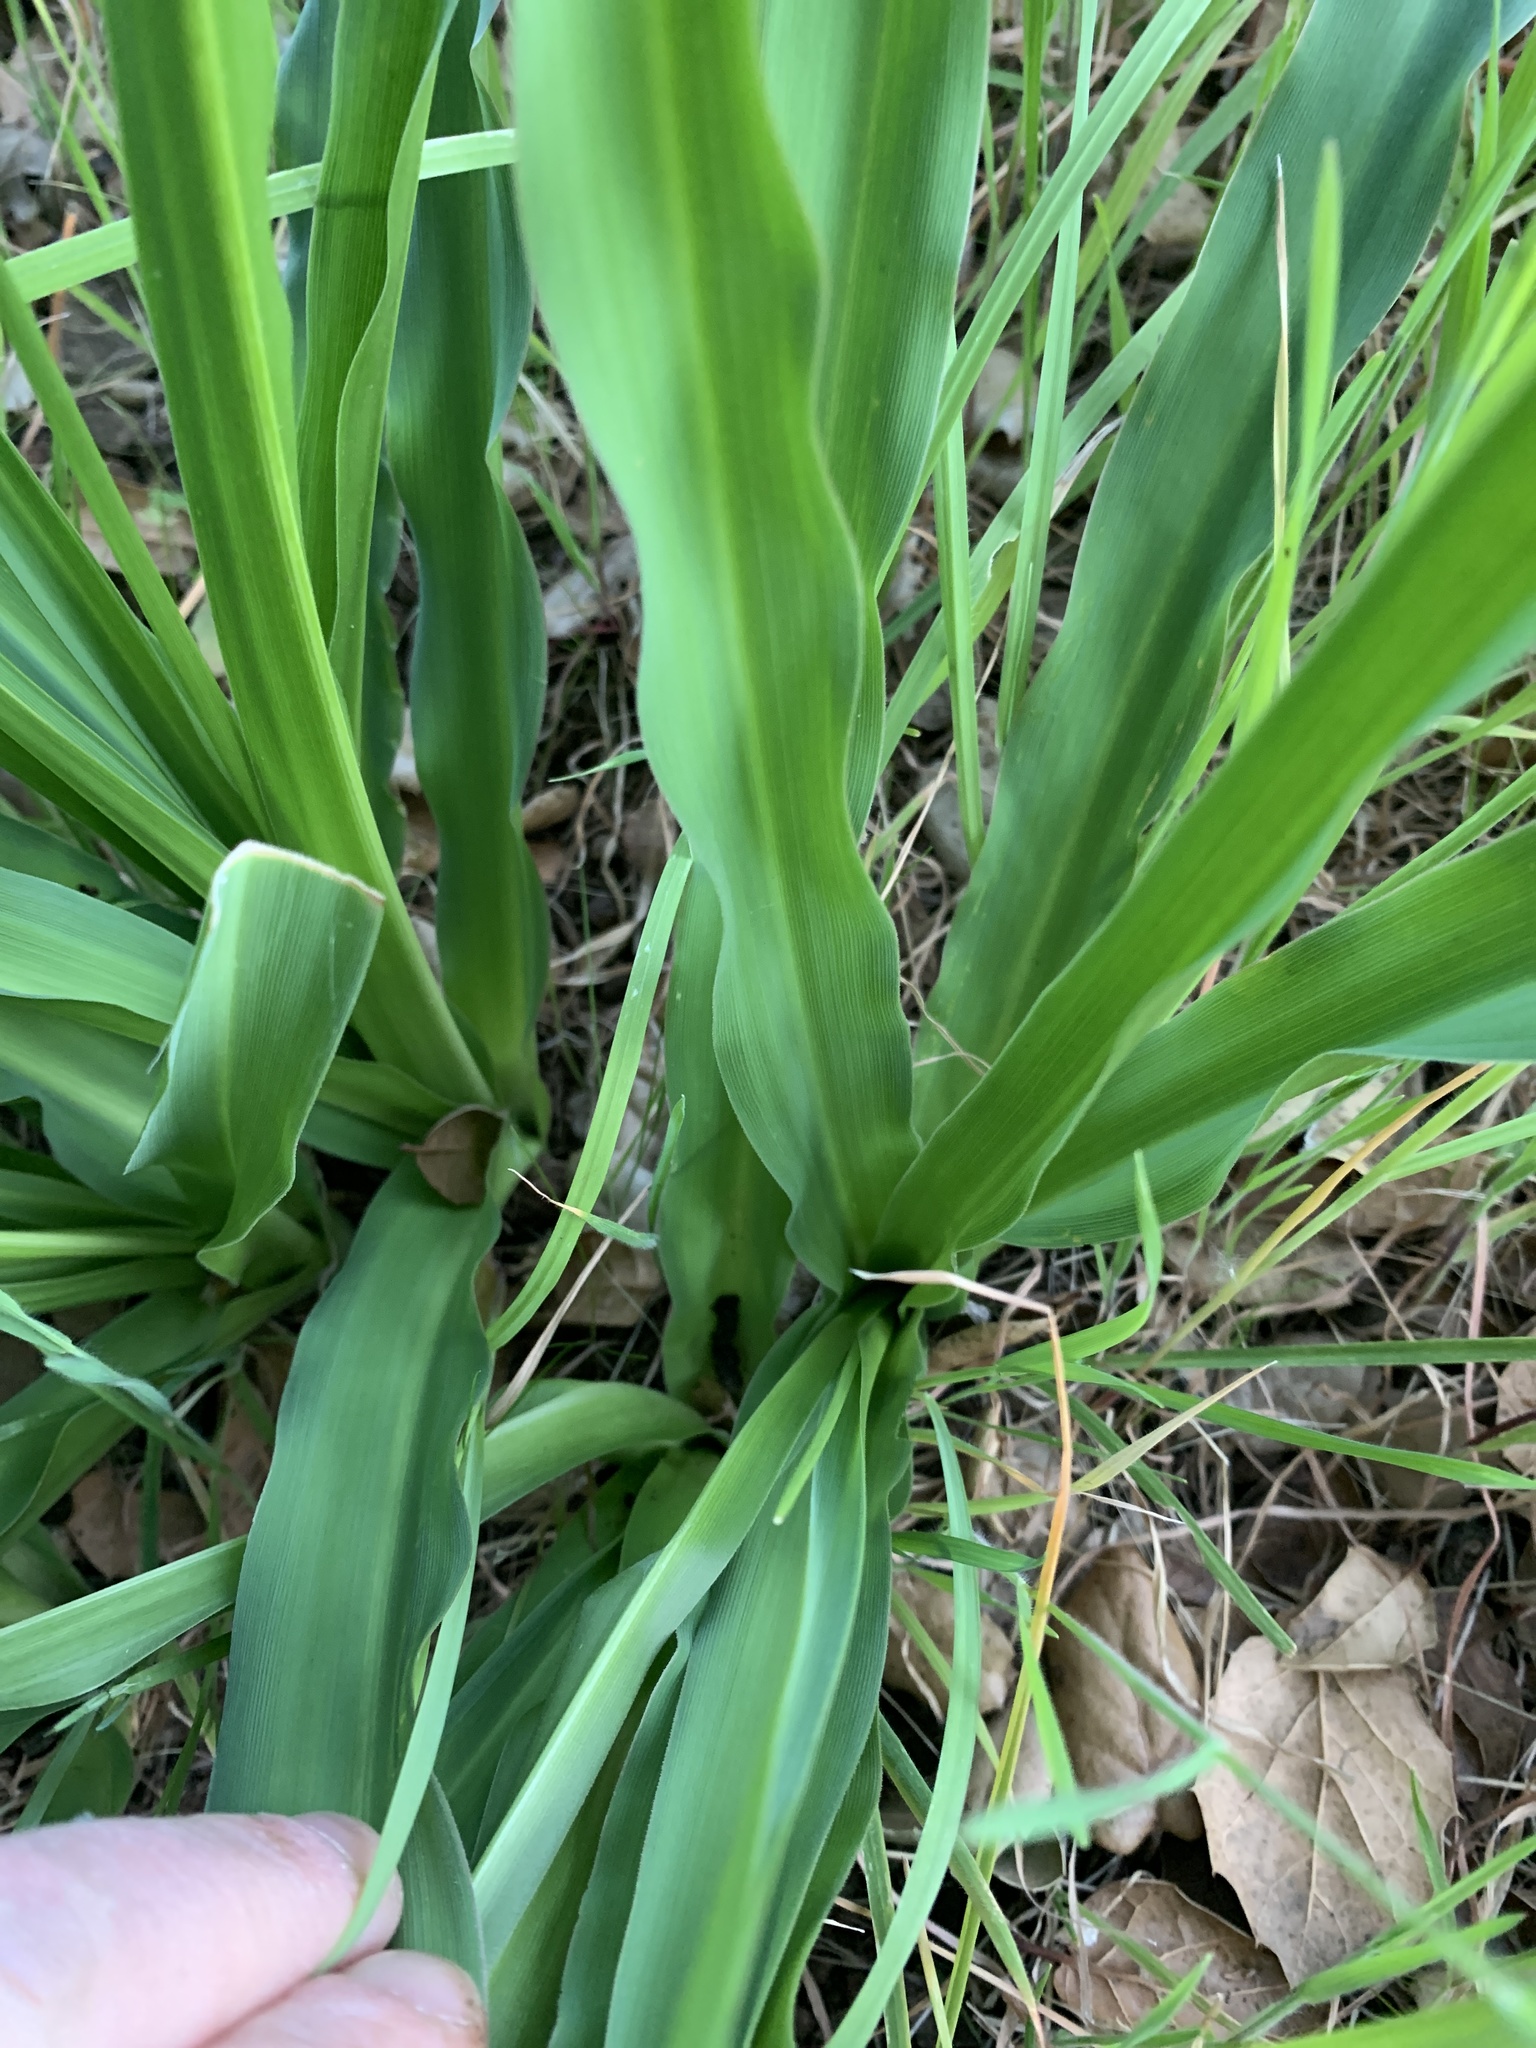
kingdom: Plantae
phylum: Tracheophyta
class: Liliopsida
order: Asparagales
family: Asparagaceae
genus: Chlorogalum
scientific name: Chlorogalum pomeridianum
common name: Amole
